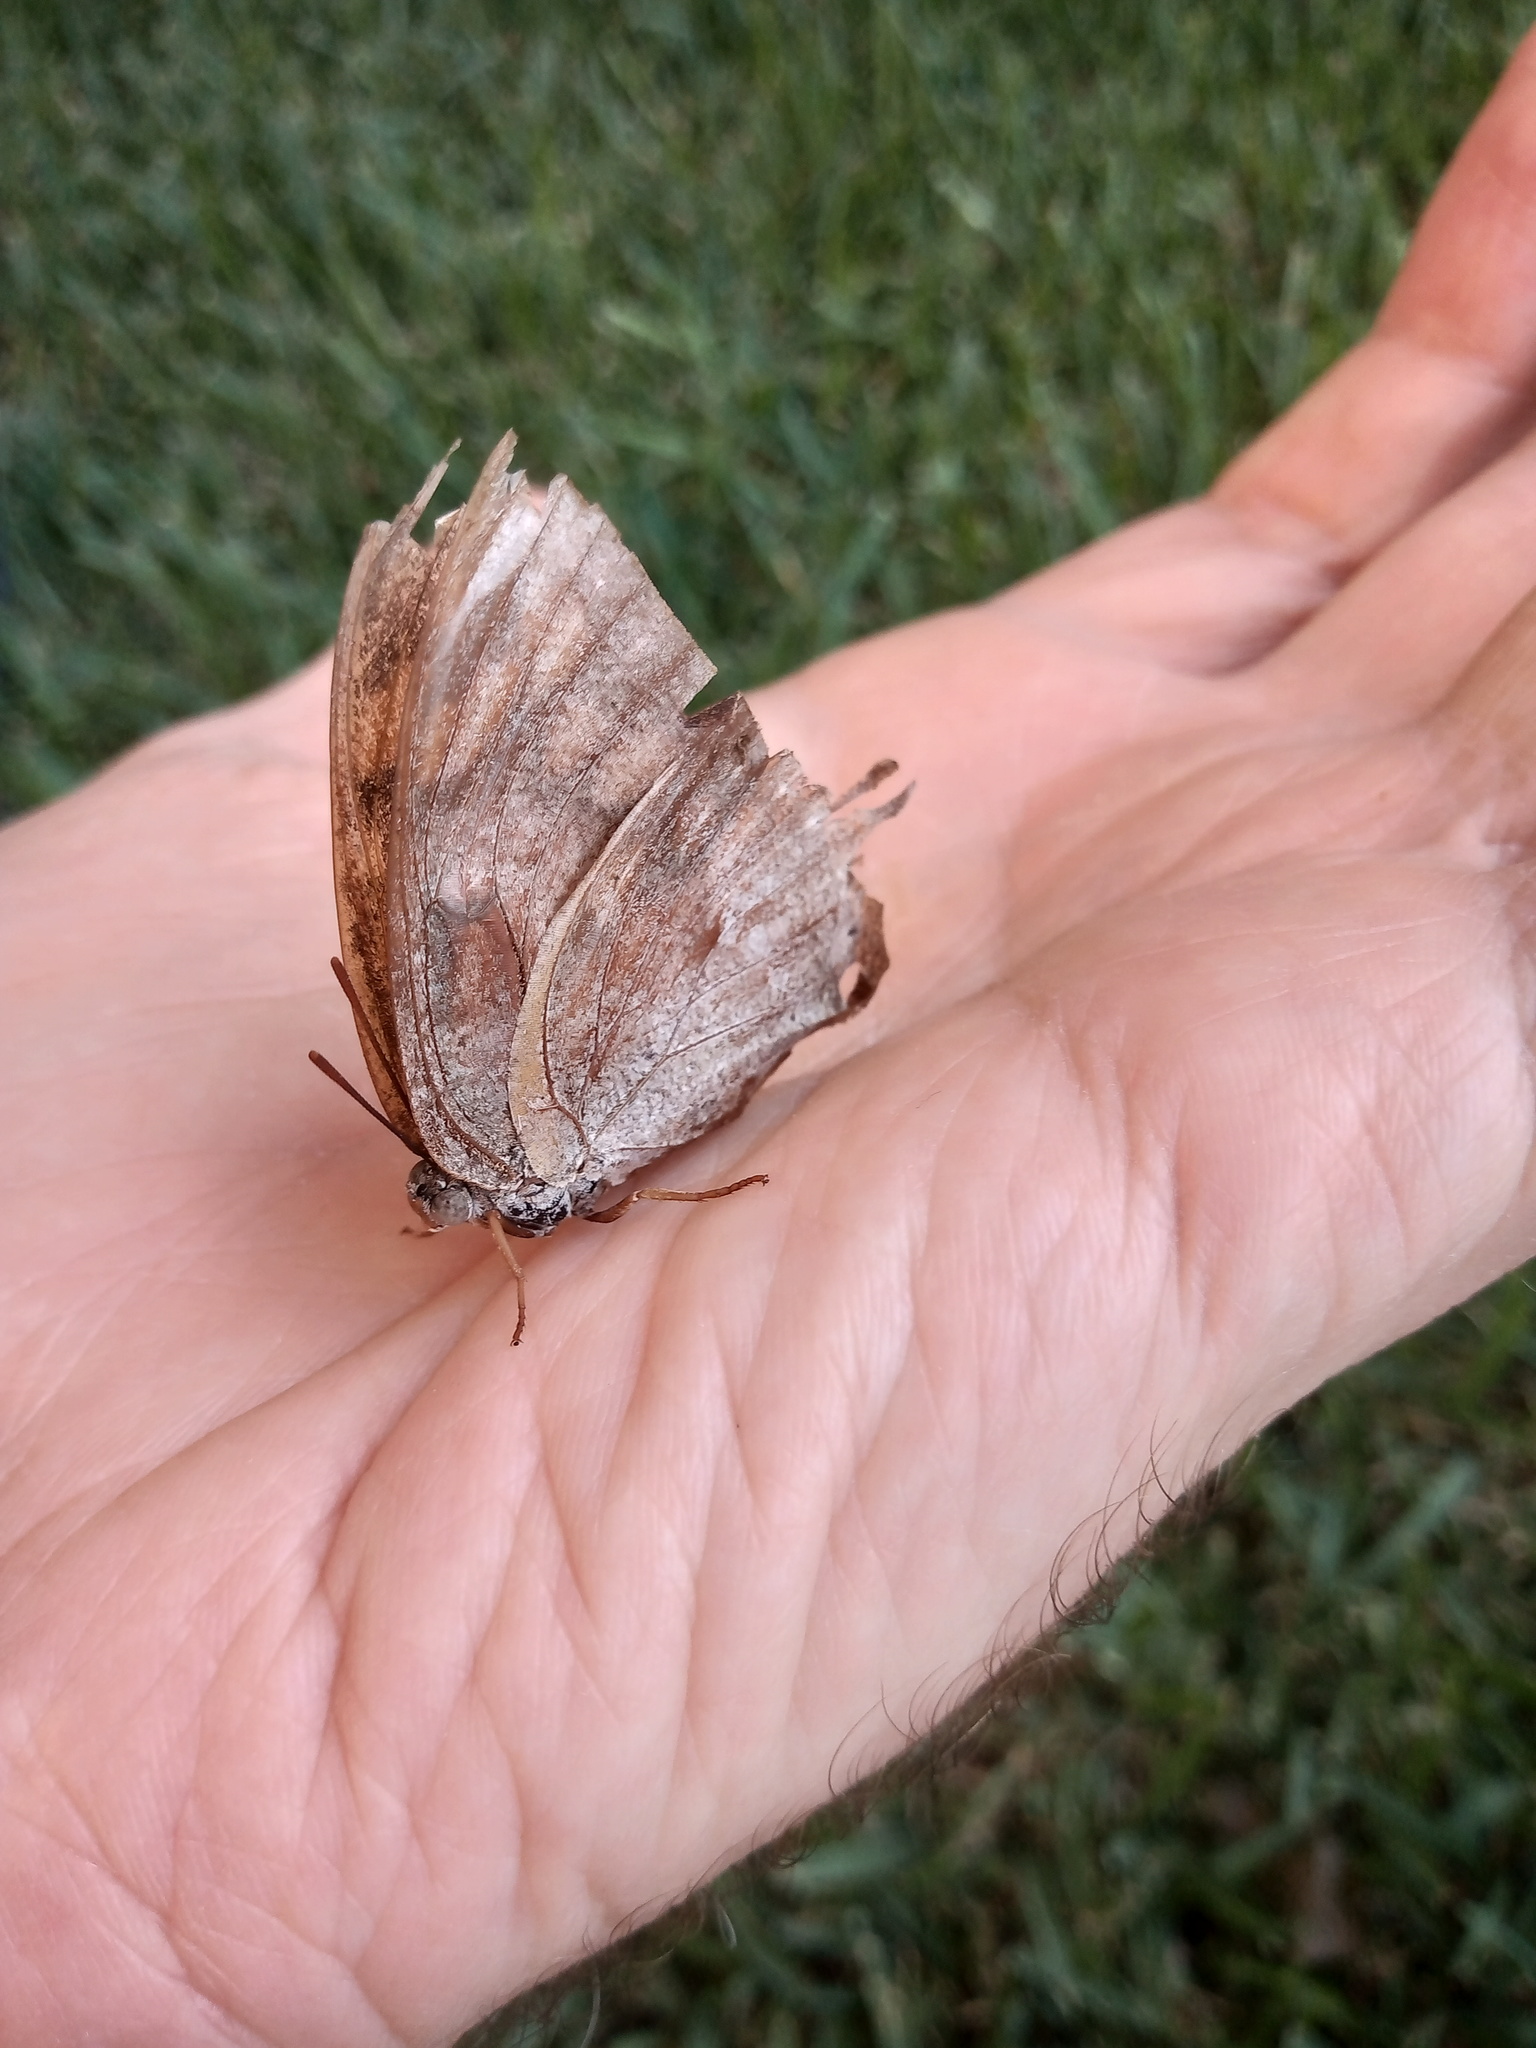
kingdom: Animalia
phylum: Arthropoda
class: Insecta
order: Lepidoptera
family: Nymphalidae
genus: Anaea
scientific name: Anaea aidea
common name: Tropical leafwing
